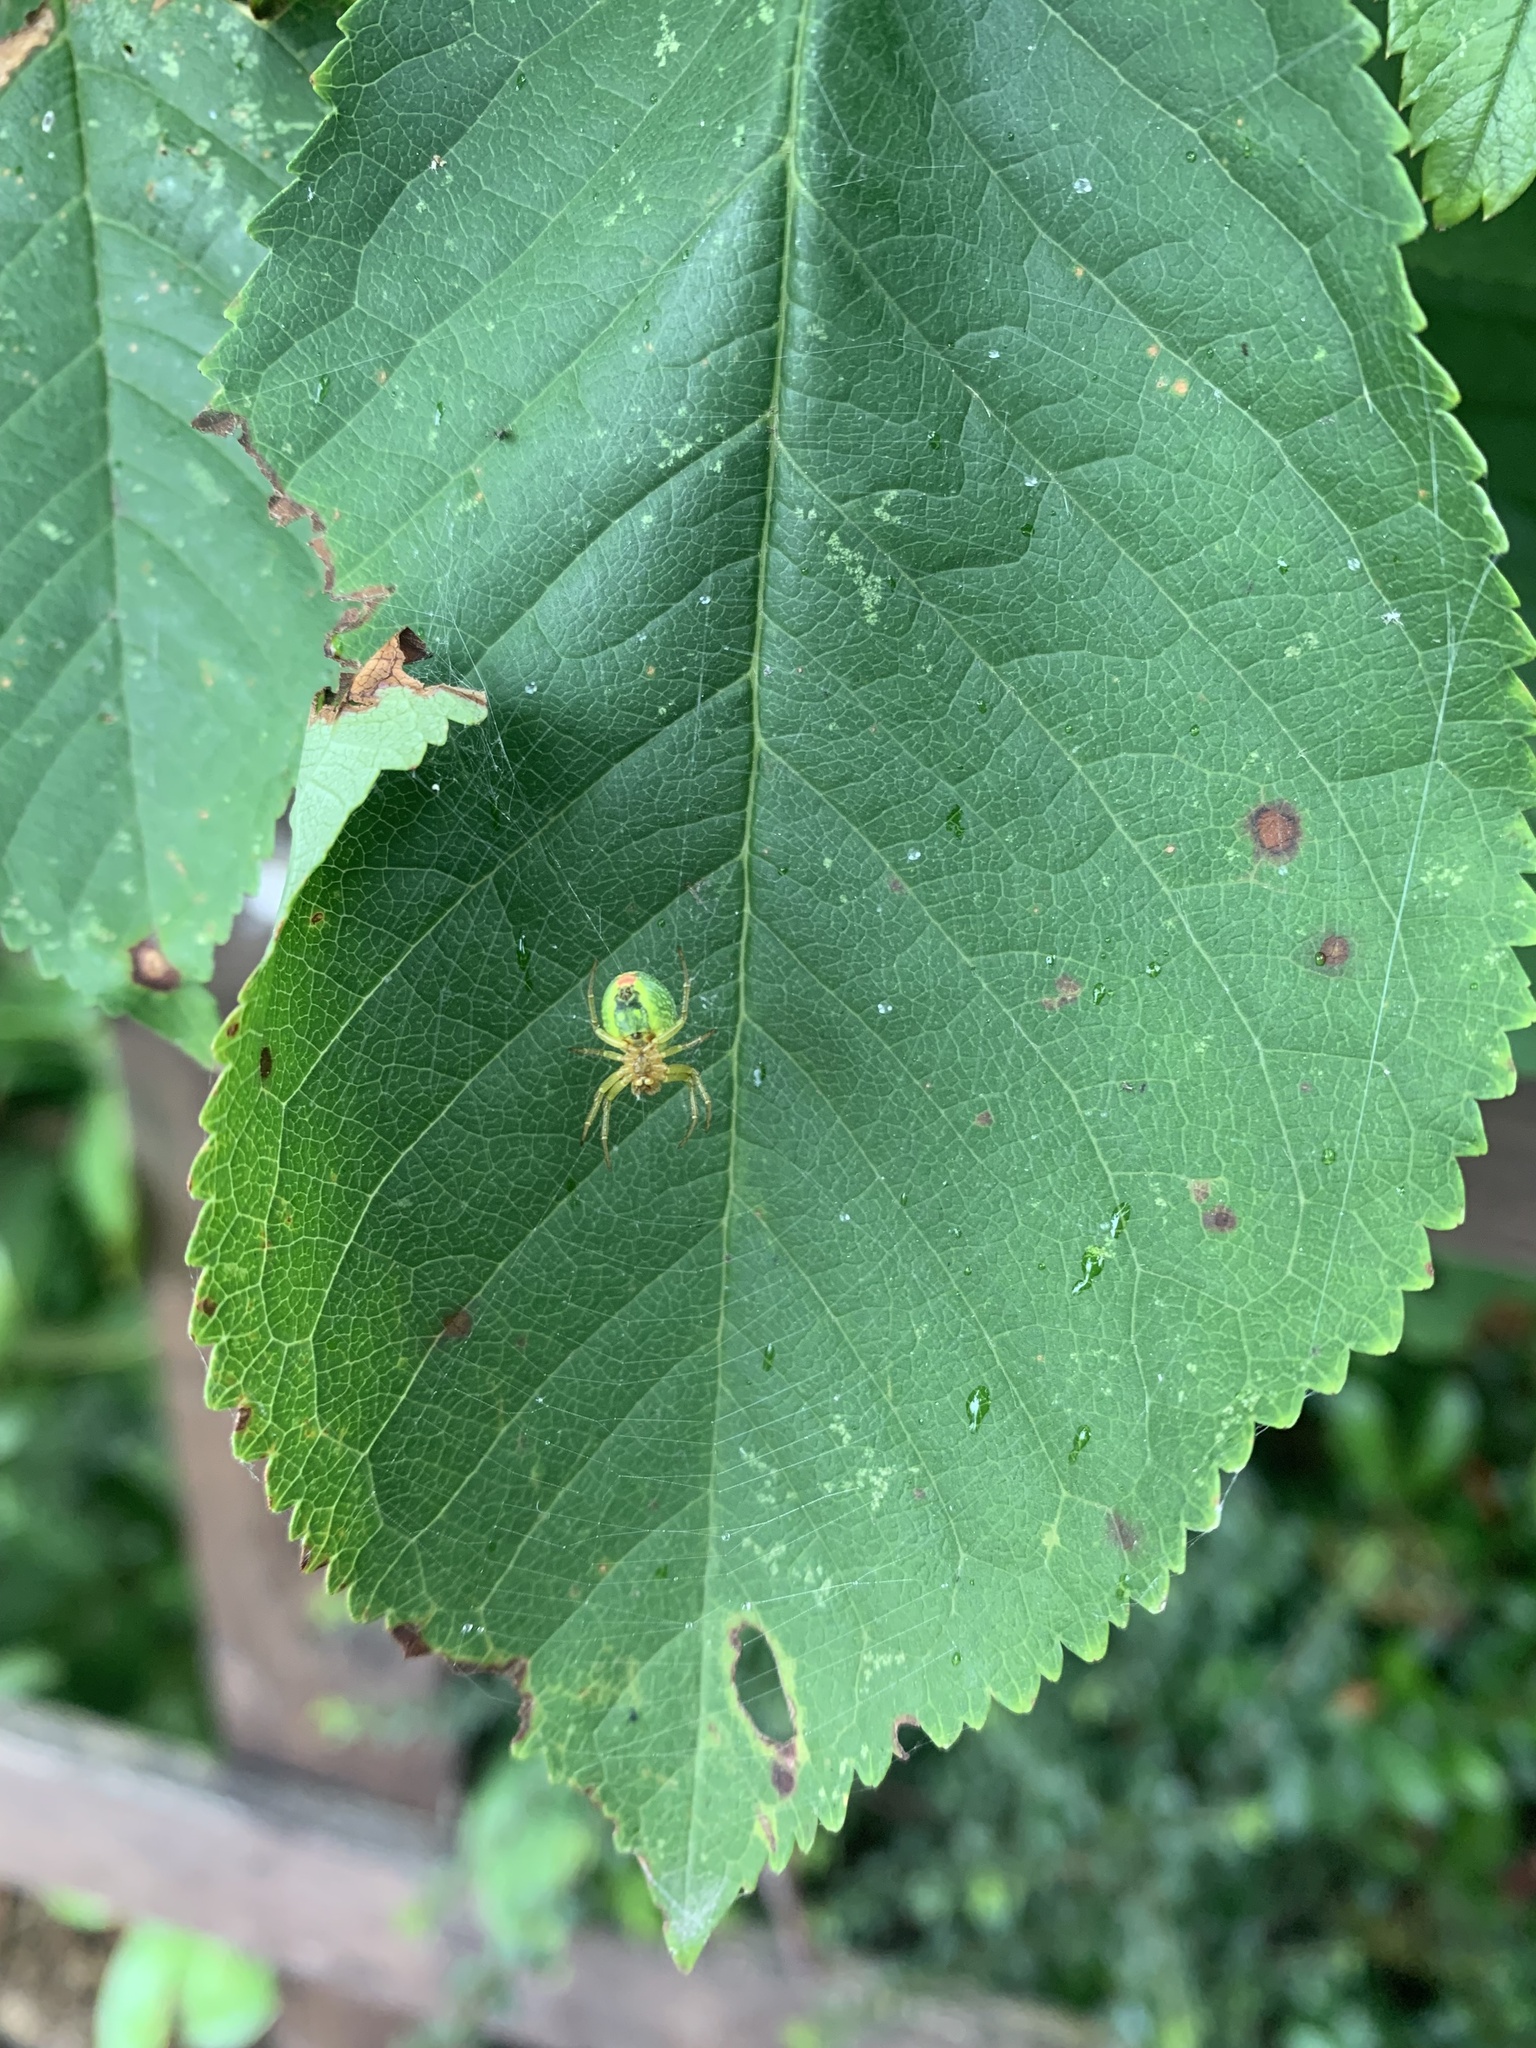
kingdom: Animalia
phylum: Arthropoda
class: Arachnida
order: Araneae
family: Araneidae
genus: Araniella
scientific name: Araniella
